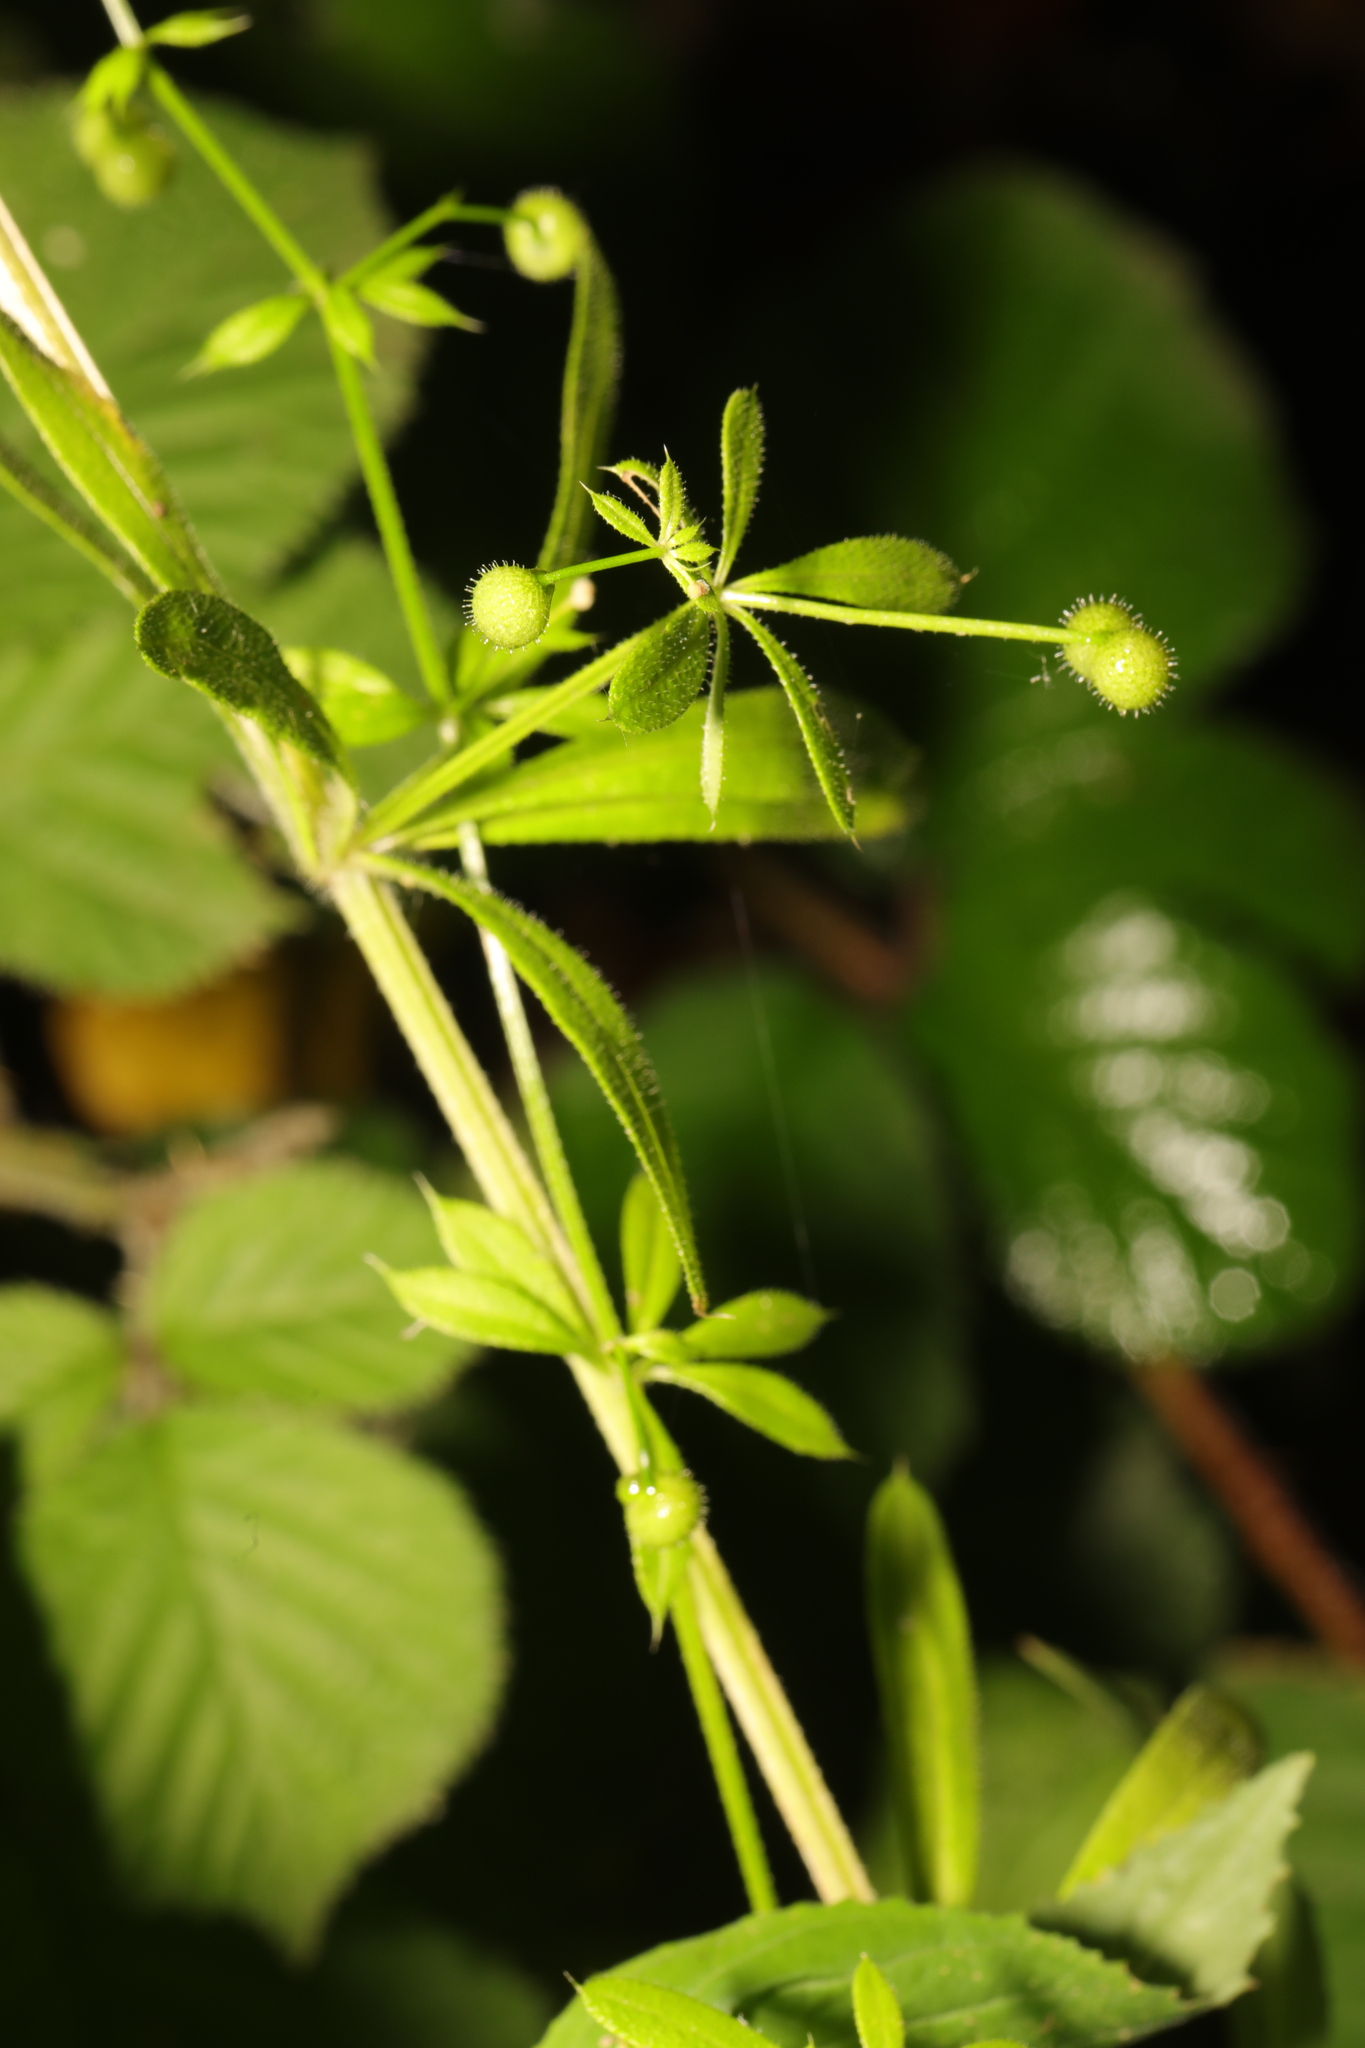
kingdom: Plantae
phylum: Tracheophyta
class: Magnoliopsida
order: Gentianales
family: Rubiaceae
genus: Galium
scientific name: Galium aparine
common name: Cleavers
